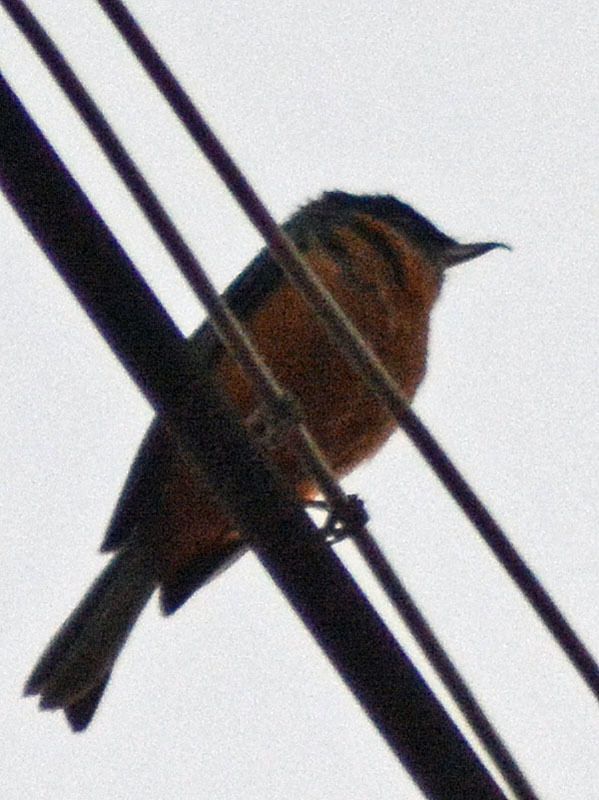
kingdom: Animalia
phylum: Chordata
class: Aves
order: Passeriformes
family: Thraupidae
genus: Diglossa
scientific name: Diglossa baritula
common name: Cinnamon-bellied flowerpiercer
